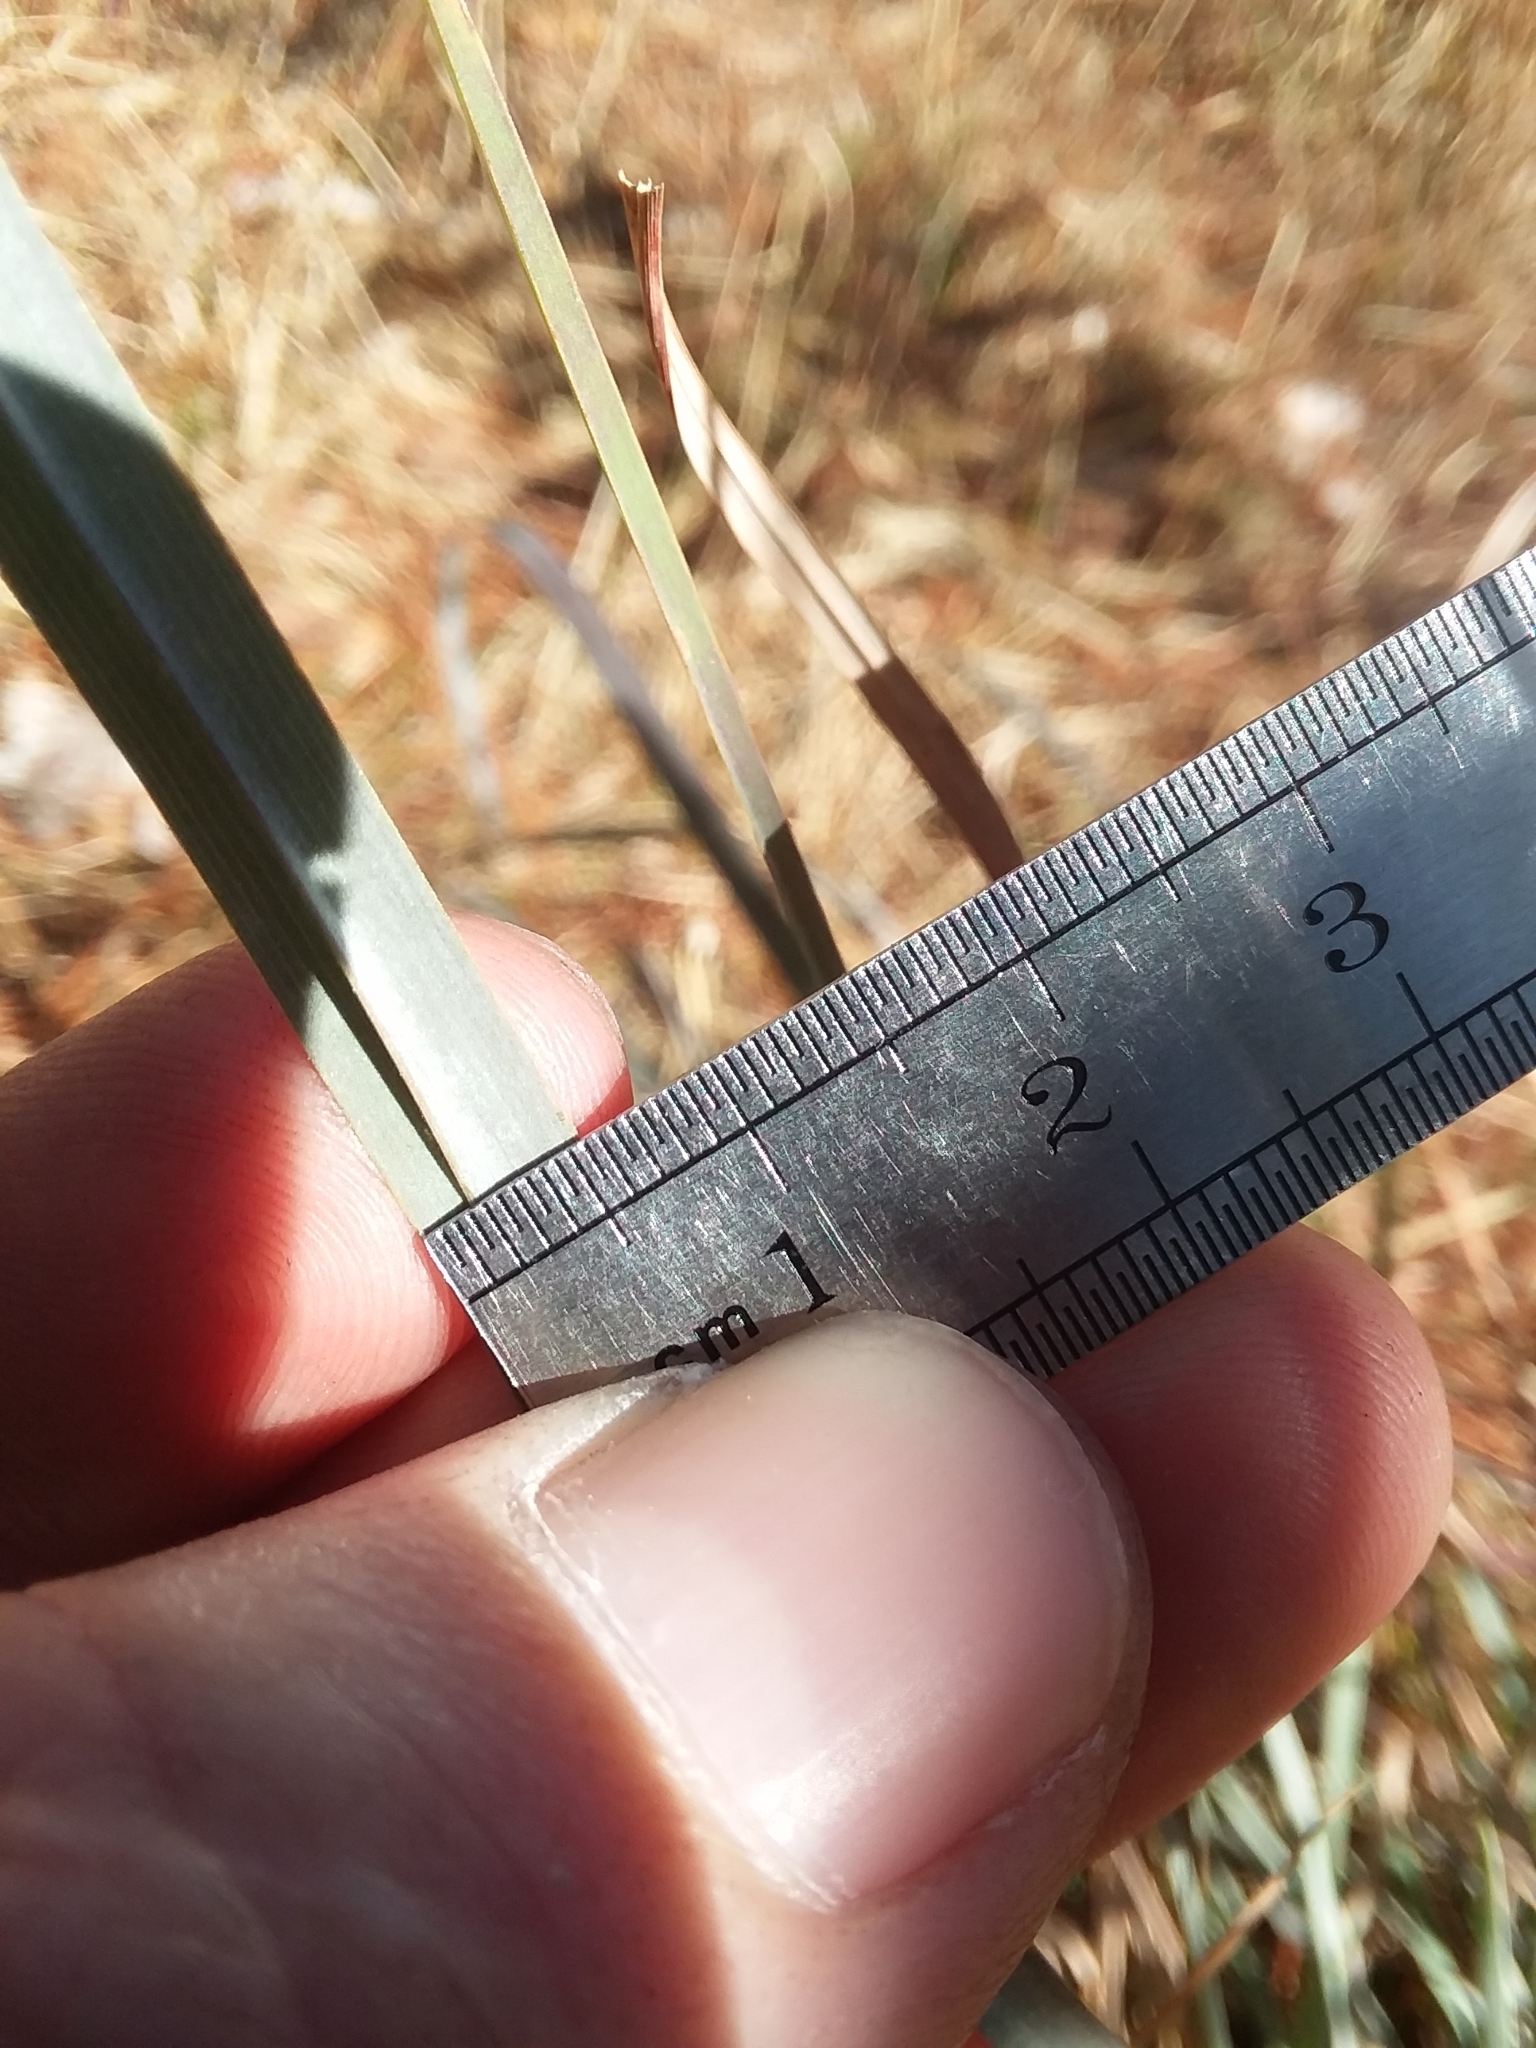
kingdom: Plantae
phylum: Tracheophyta
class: Liliopsida
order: Poales
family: Poaceae
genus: Andropogon
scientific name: Andropogon cretaceus
